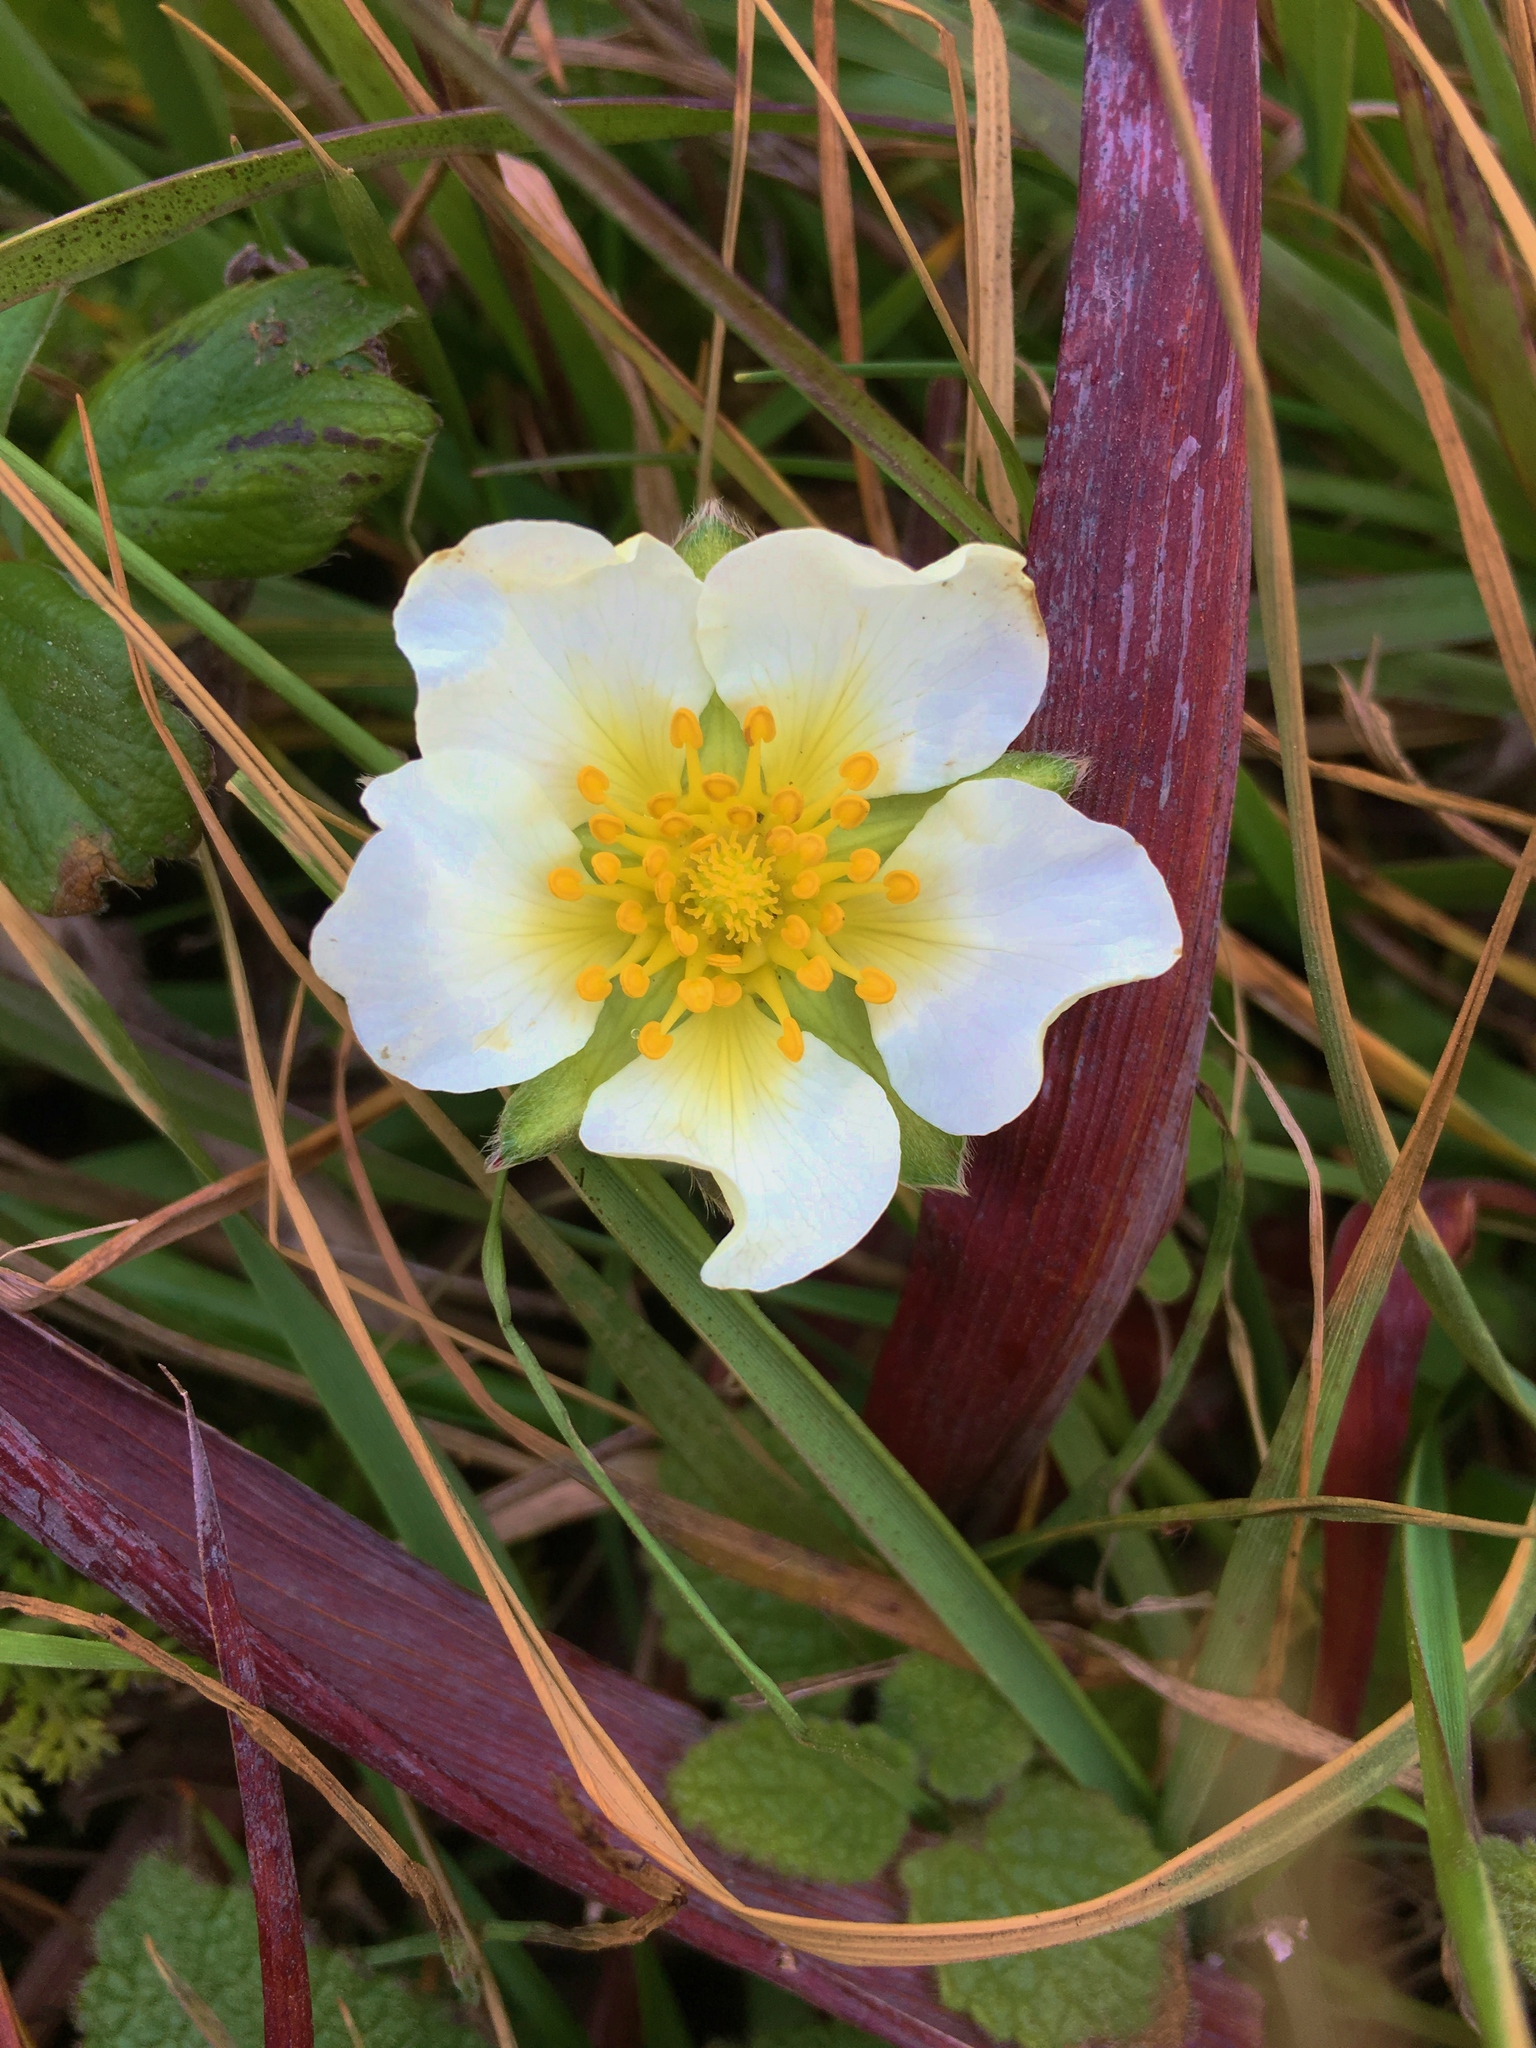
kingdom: Plantae
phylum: Tracheophyta
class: Magnoliopsida
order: Rosales
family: Rosaceae
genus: Fragaria
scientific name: Fragaria chiloensis
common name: Beach strawberry
